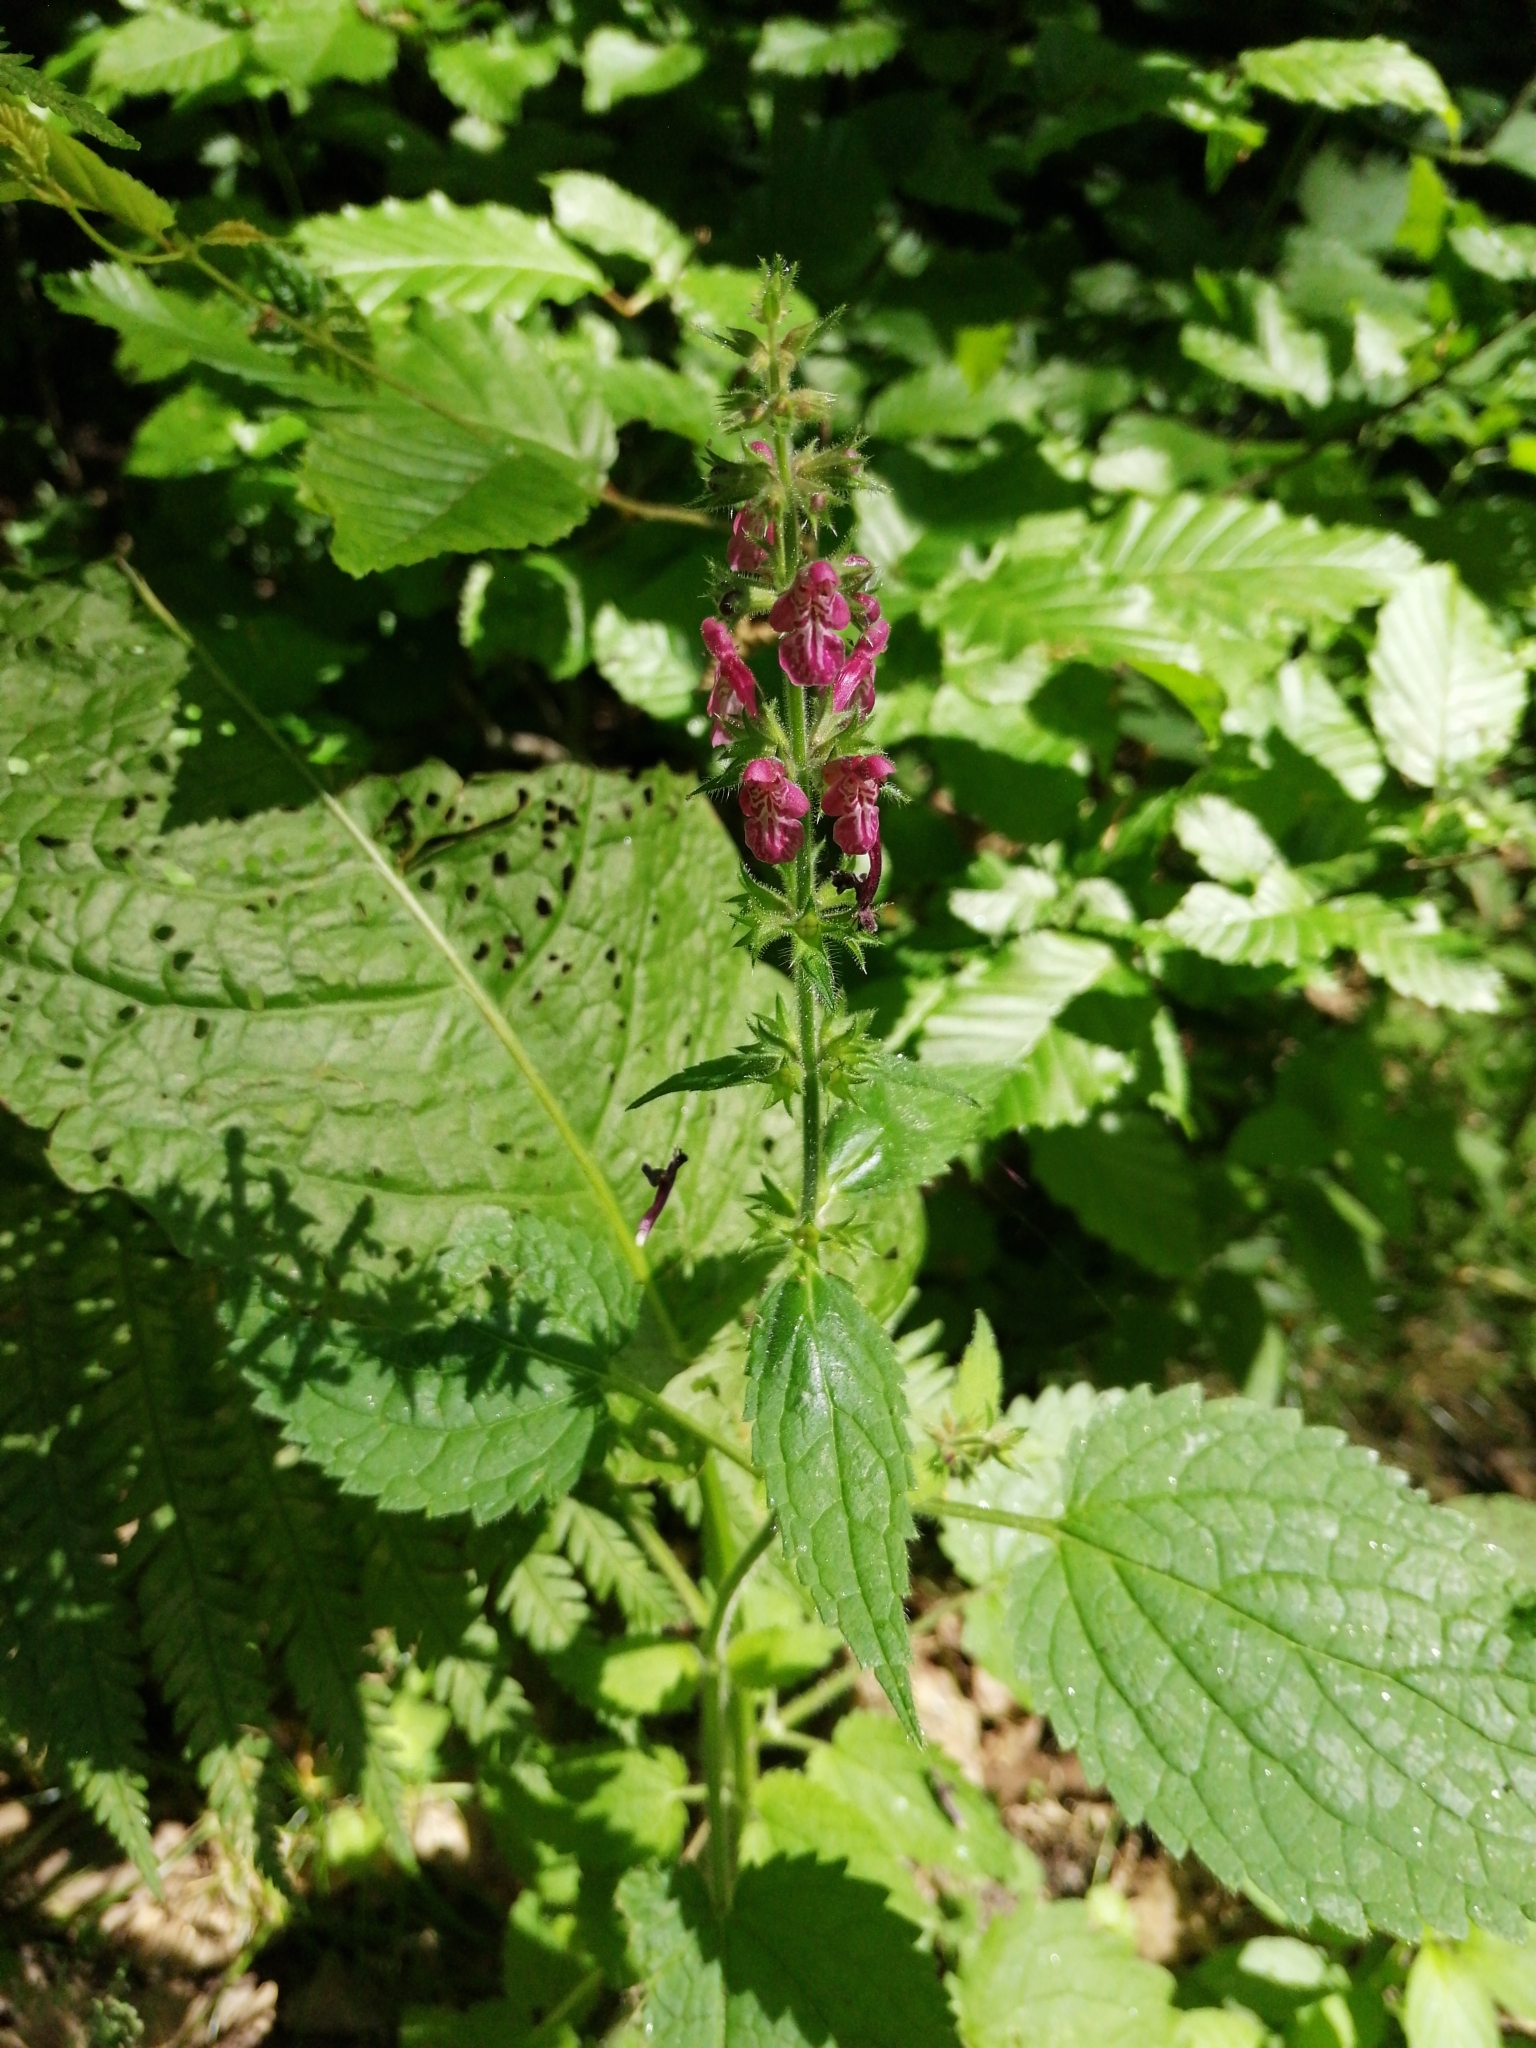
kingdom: Plantae
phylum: Tracheophyta
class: Magnoliopsida
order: Lamiales
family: Lamiaceae
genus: Stachys
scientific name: Stachys sylvatica
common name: Hedge woundwort
